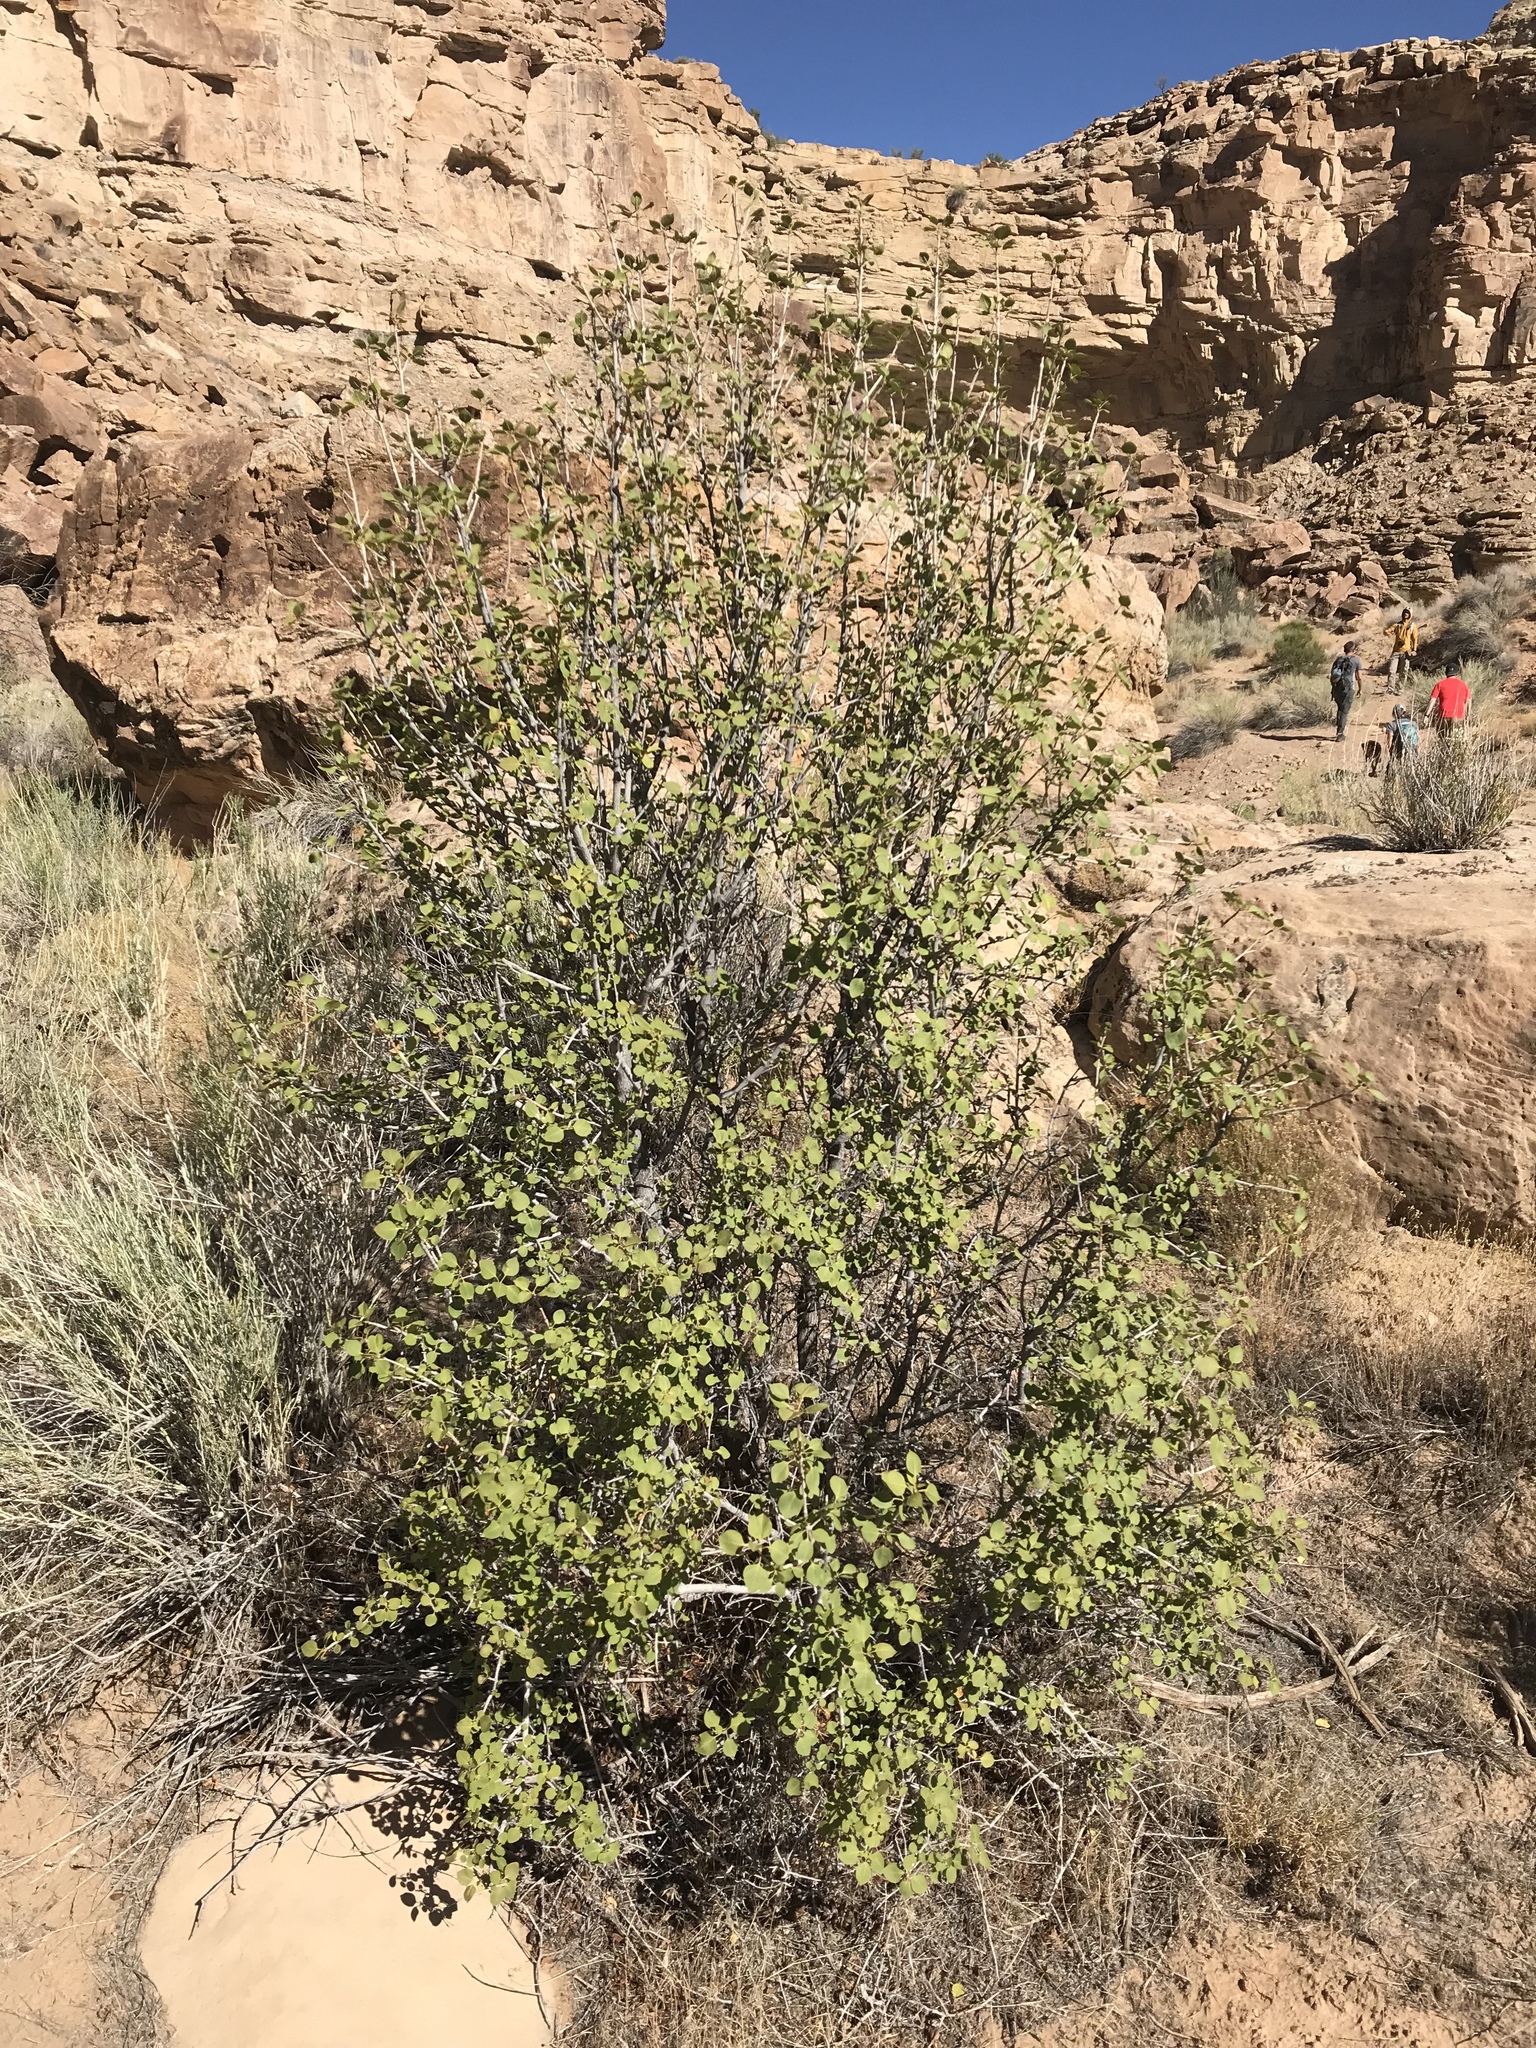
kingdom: Plantae
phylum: Tracheophyta
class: Magnoliopsida
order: Lamiales
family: Oleaceae
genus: Fraxinus
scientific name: Fraxinus anomala
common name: Utah ash
